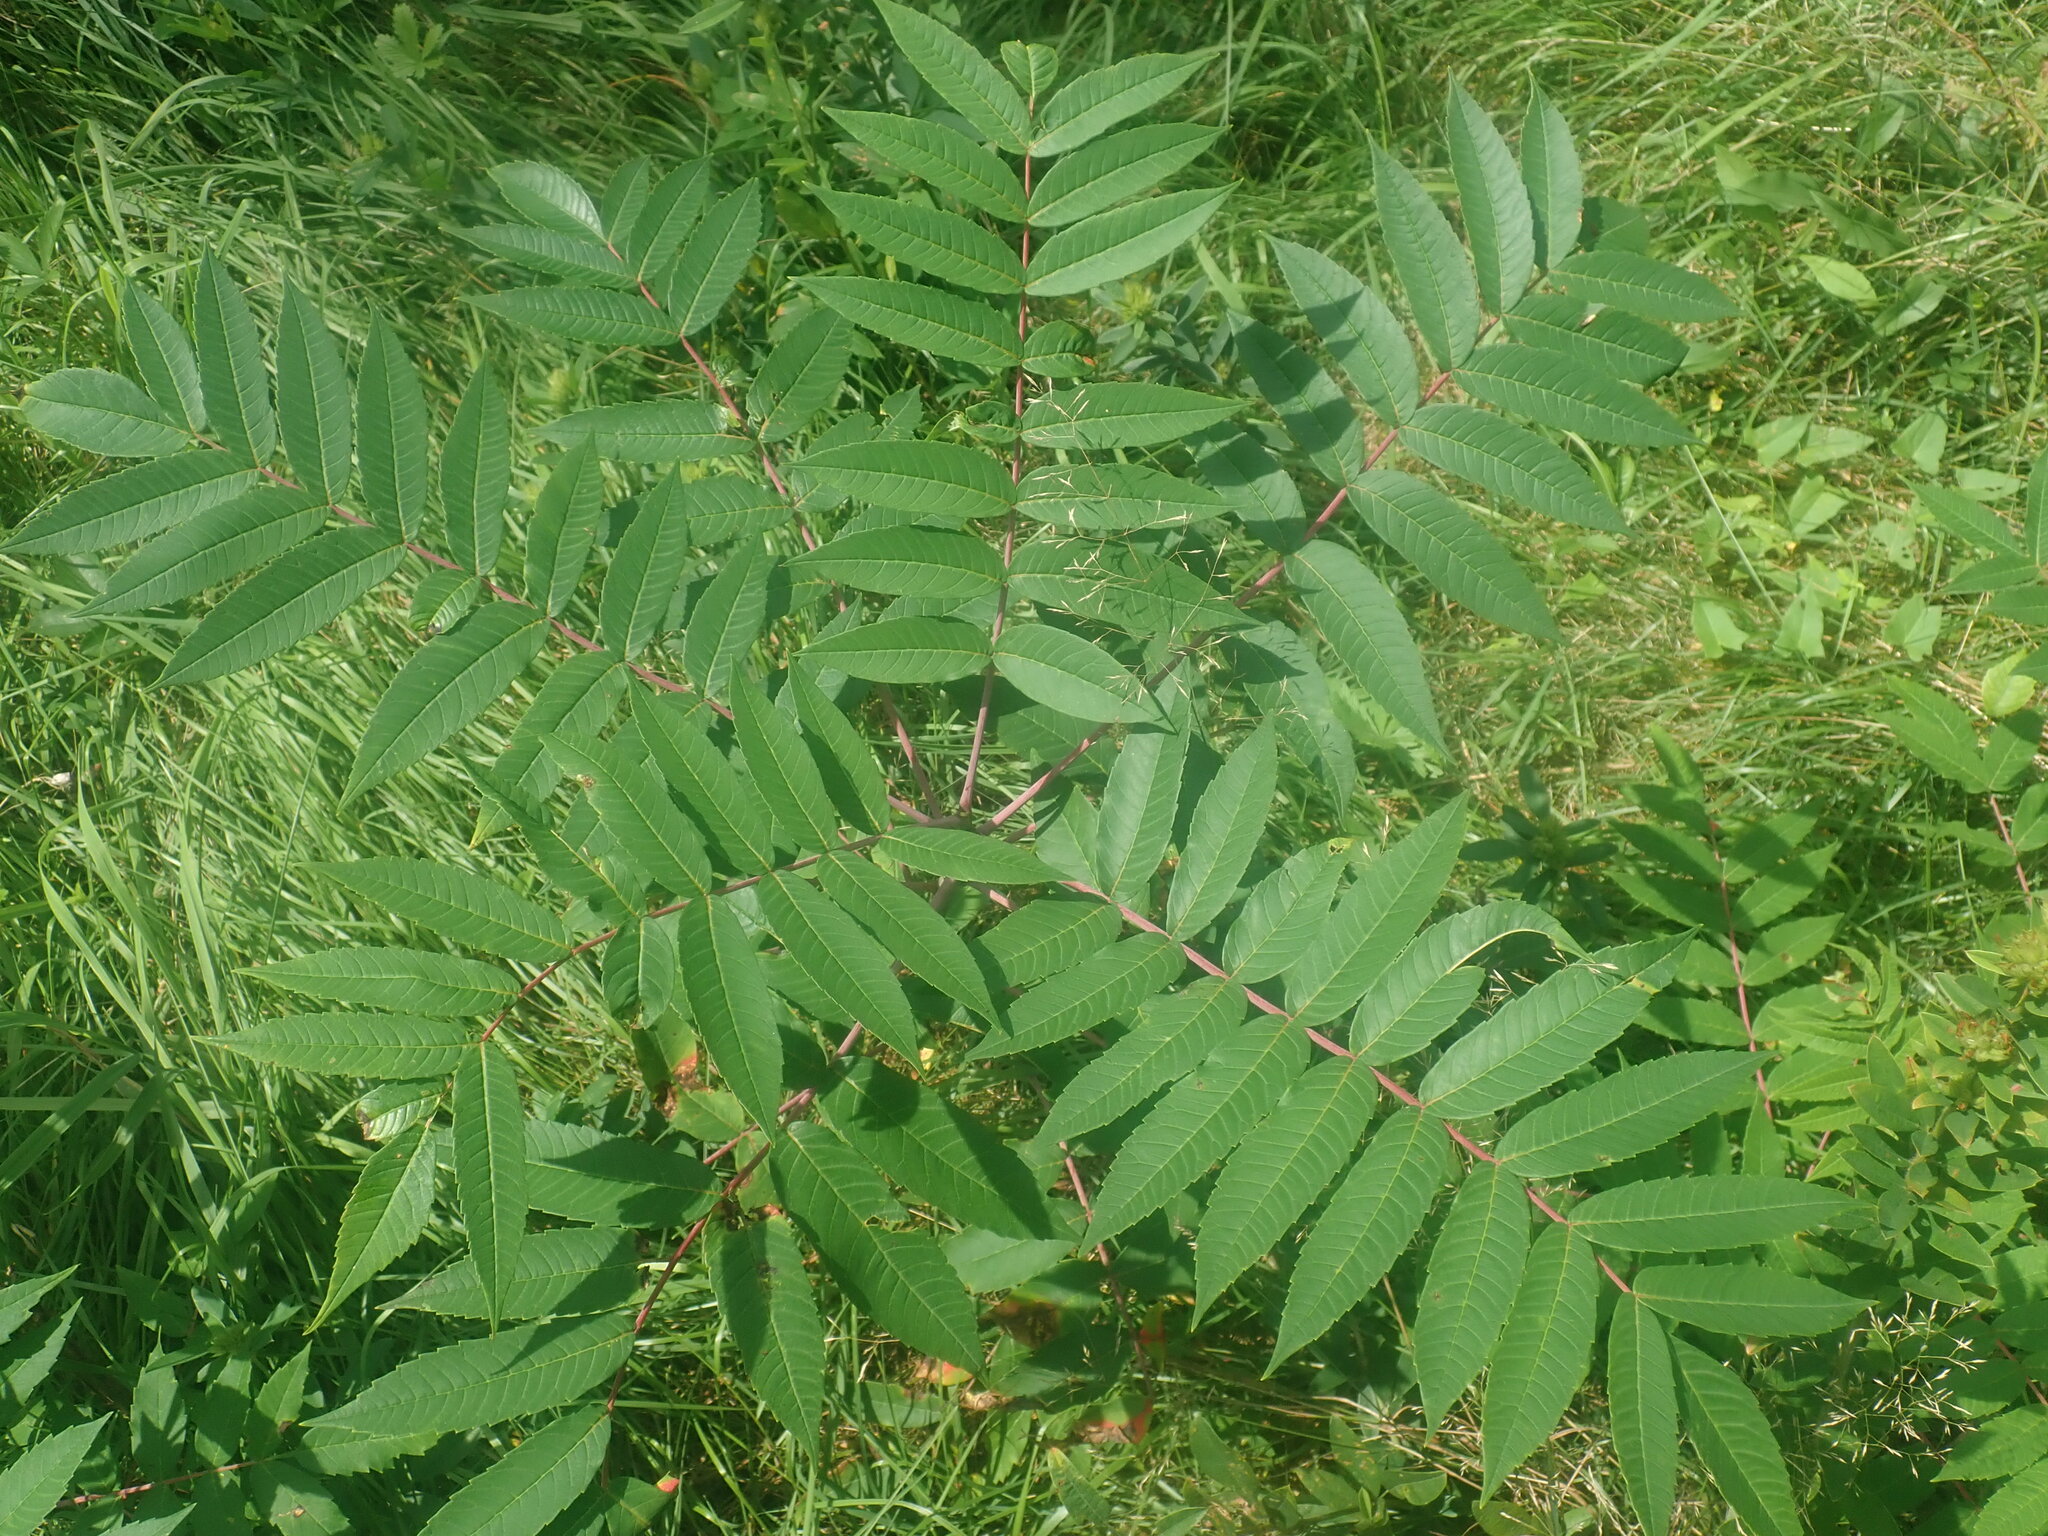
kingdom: Plantae
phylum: Tracheophyta
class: Magnoliopsida
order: Sapindales
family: Anacardiaceae
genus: Rhus
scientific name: Rhus glabra
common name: Scarlet sumac
